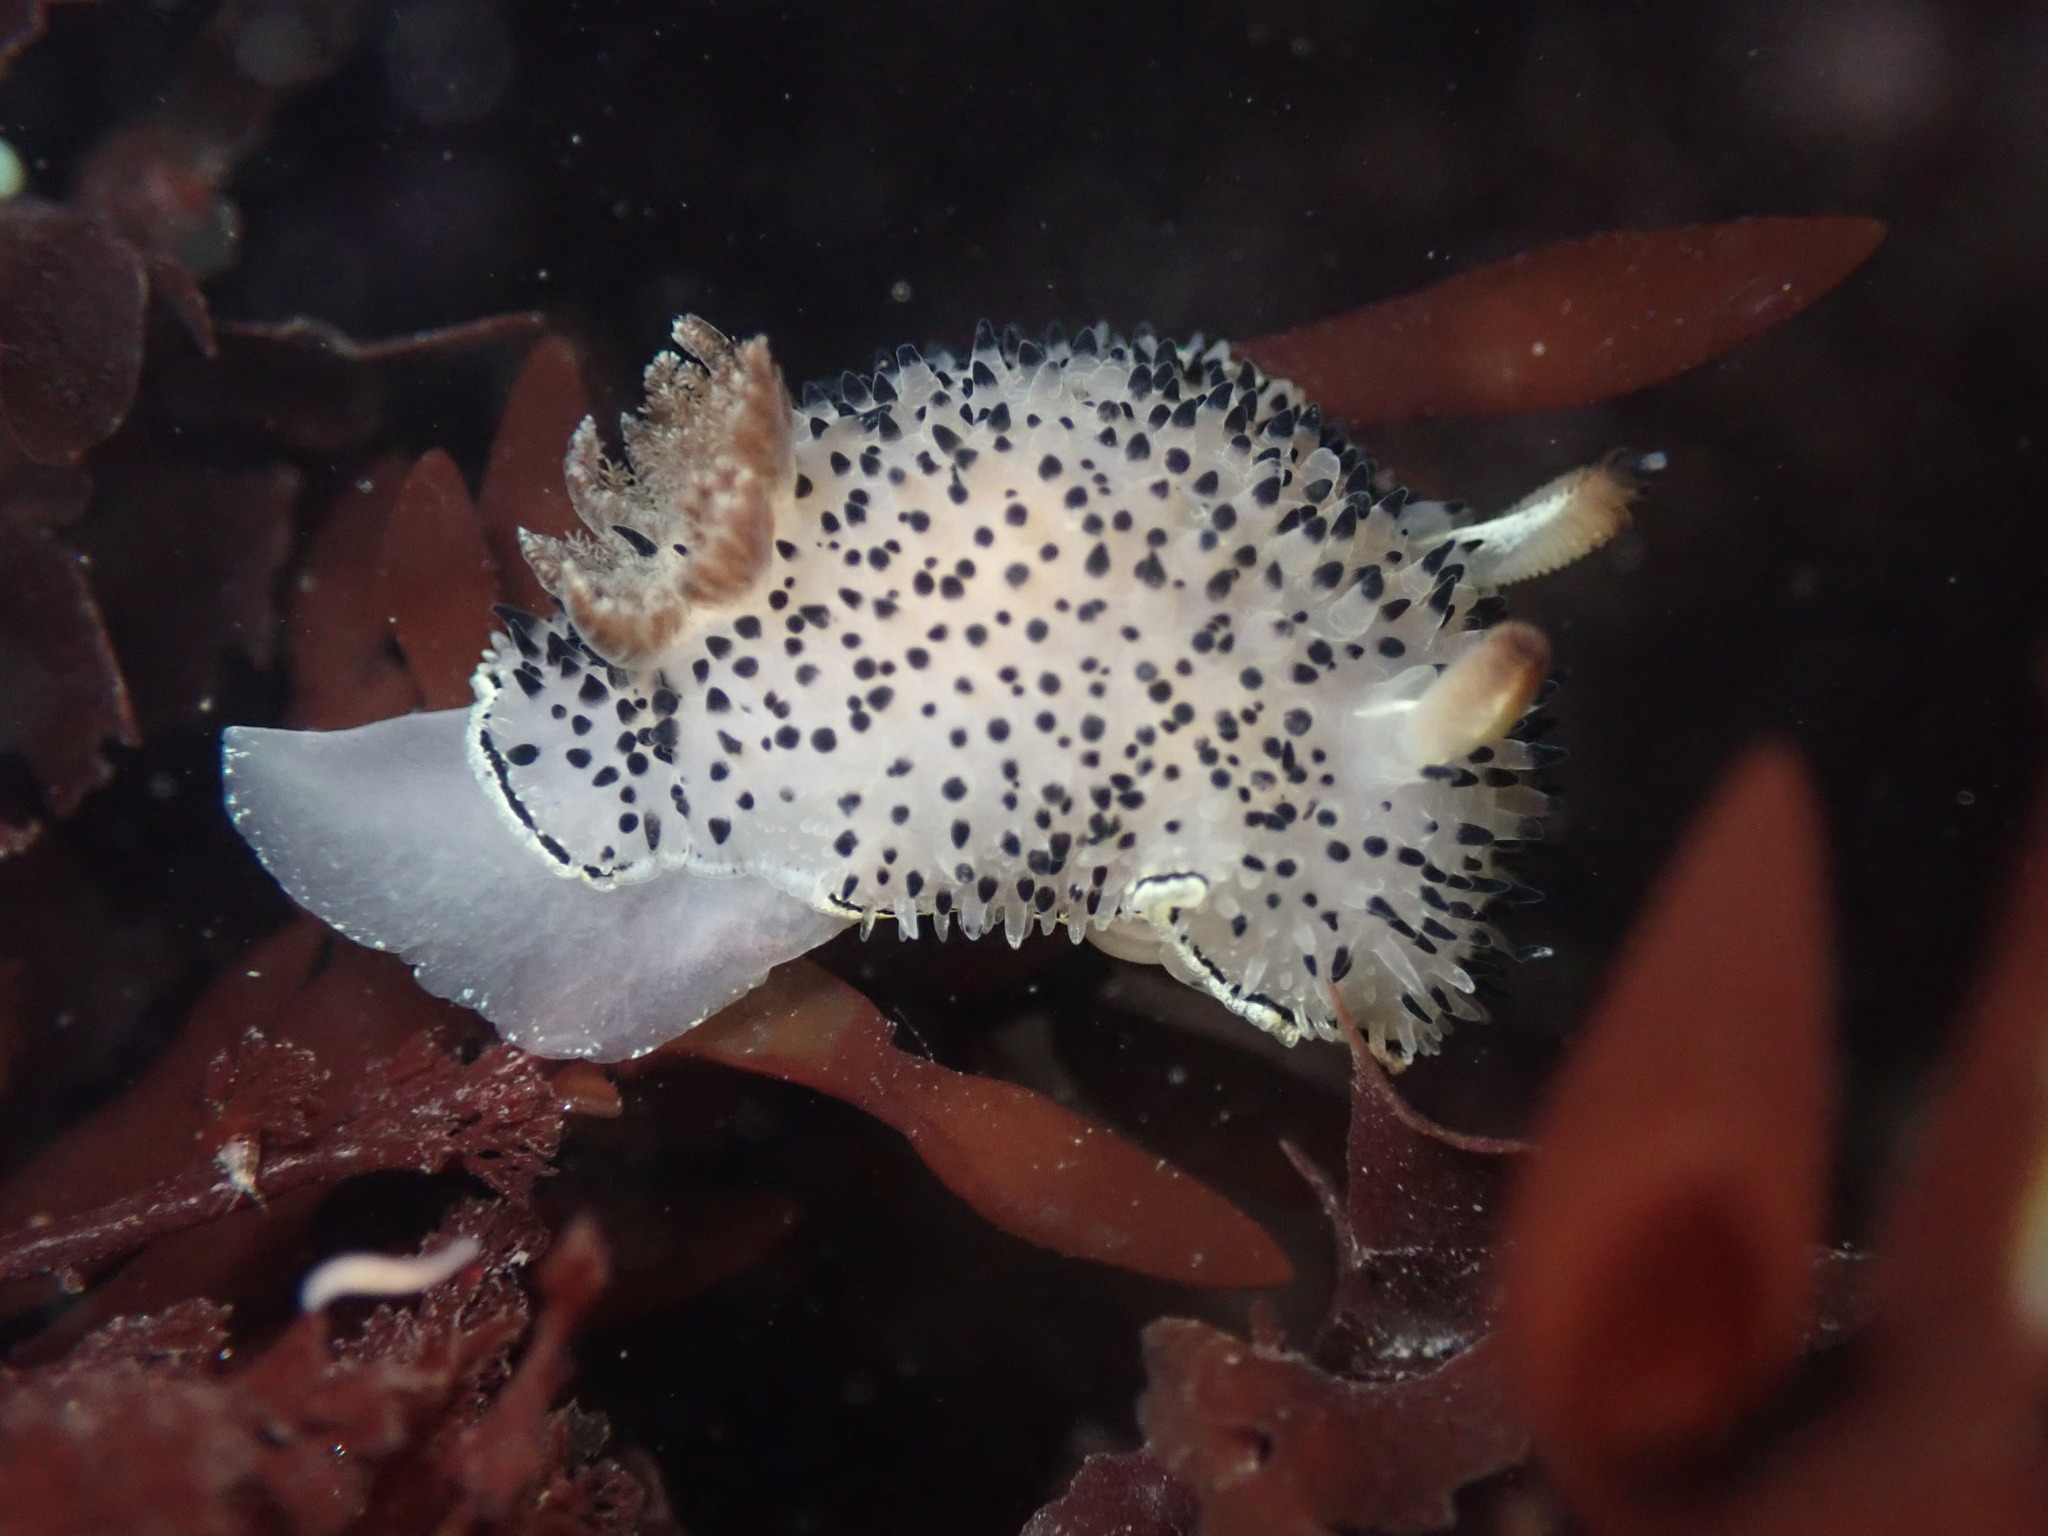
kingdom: Animalia
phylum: Mollusca
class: Gastropoda
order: Nudibranchia
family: Onchidorididae
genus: Acanthodoris
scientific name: Acanthodoris rhodoceras
